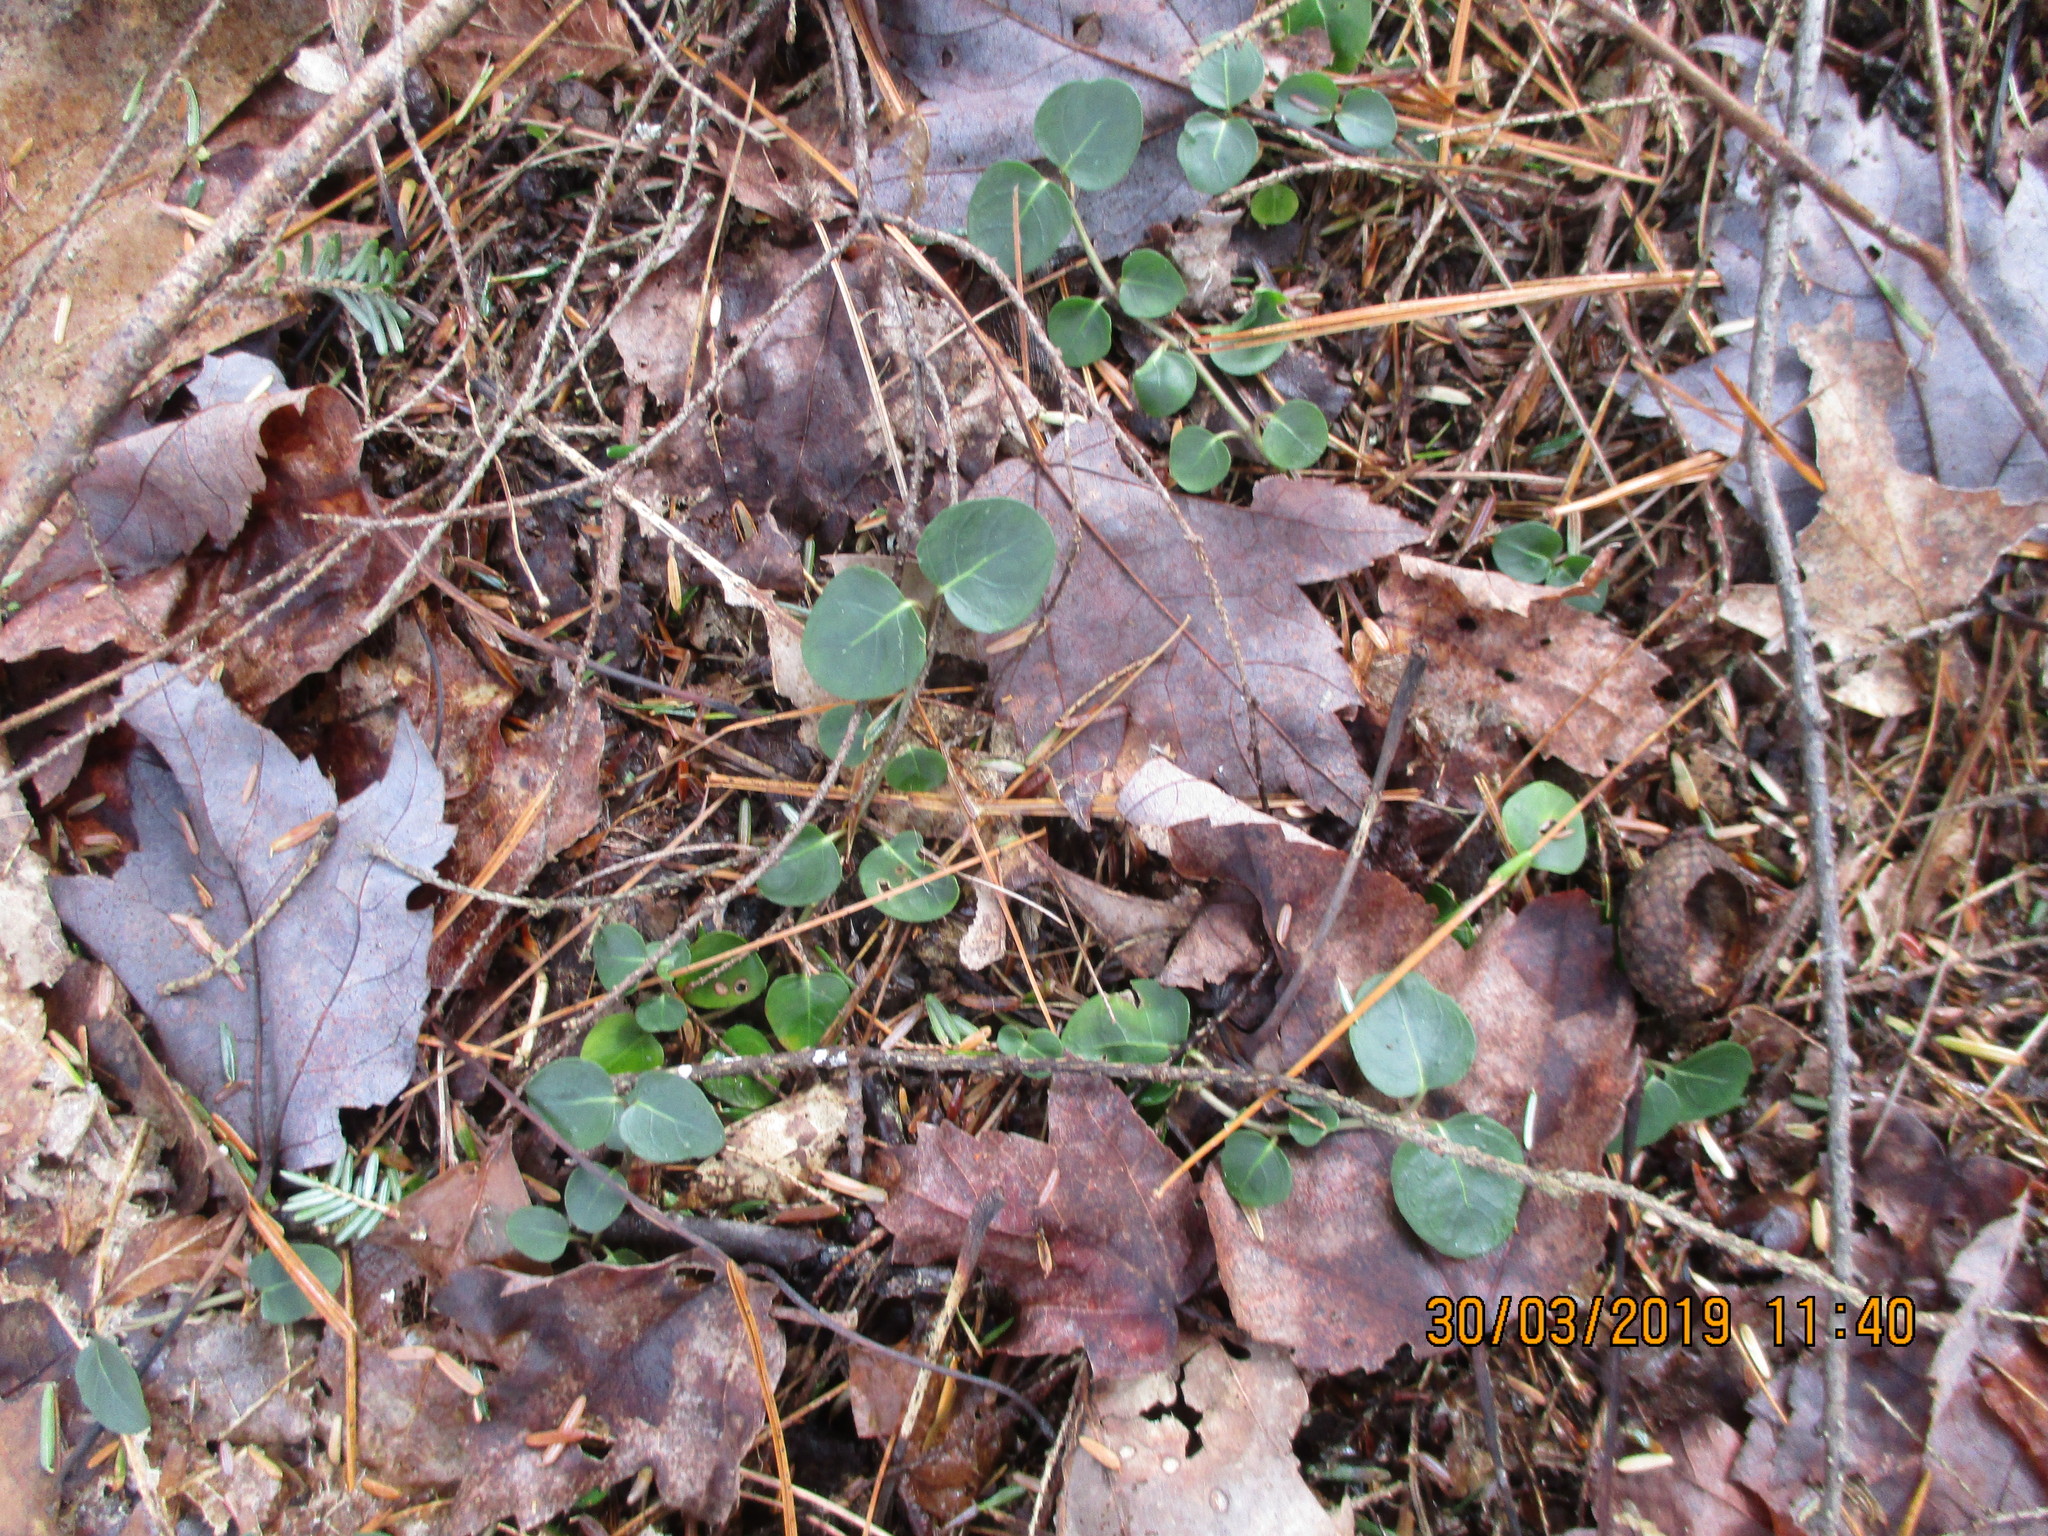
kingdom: Plantae
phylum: Tracheophyta
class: Magnoliopsida
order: Gentianales
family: Rubiaceae
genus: Mitchella
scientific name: Mitchella repens
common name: Partridge-berry
